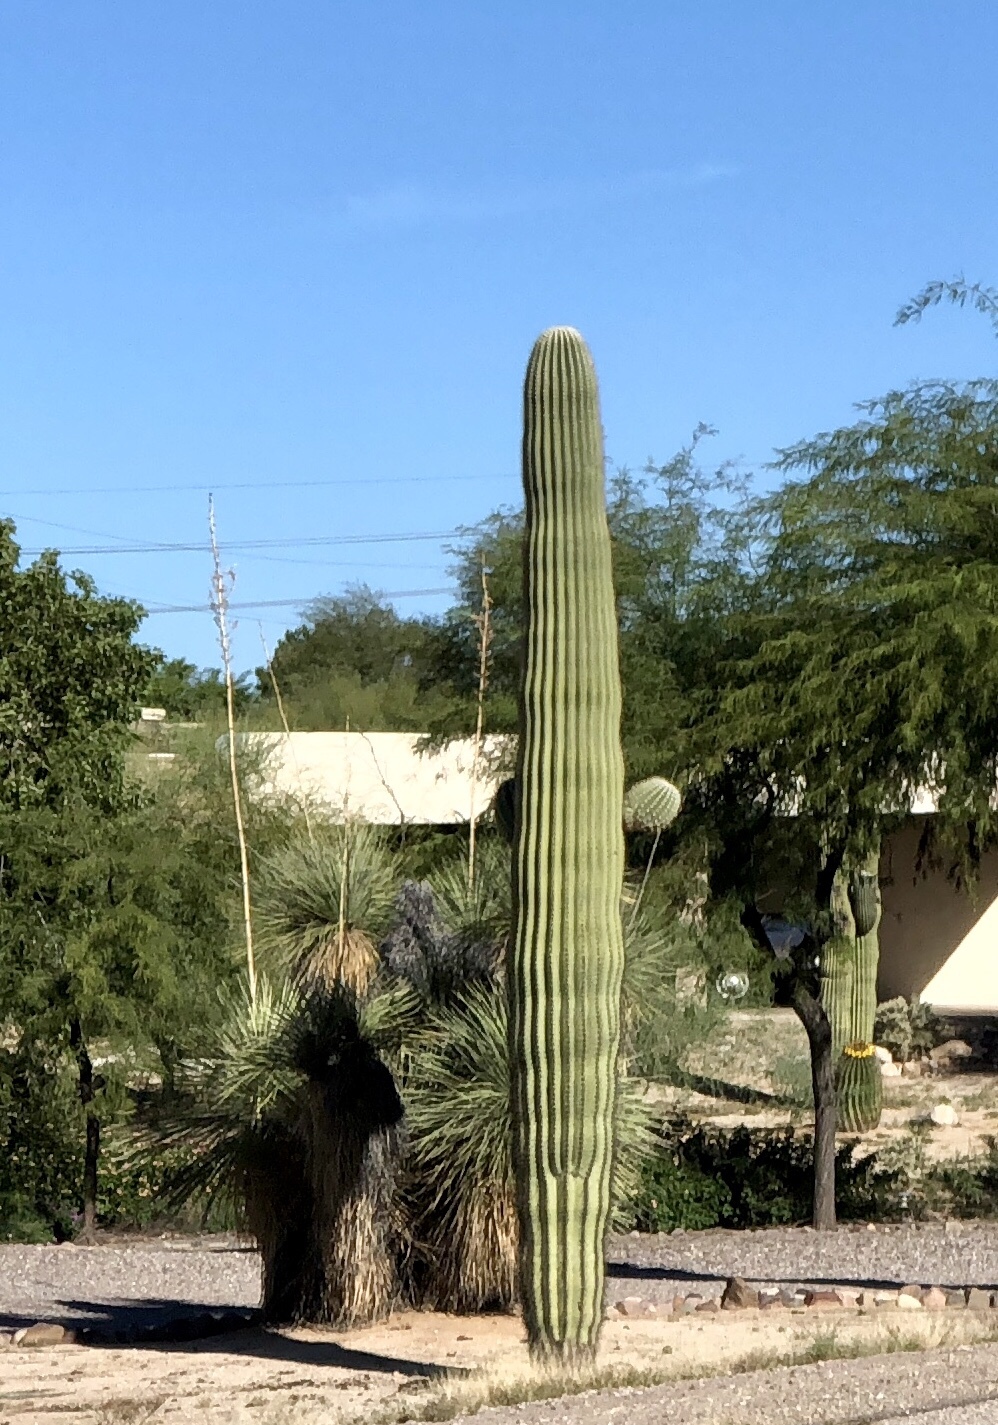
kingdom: Plantae
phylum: Tracheophyta
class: Magnoliopsida
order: Caryophyllales
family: Cactaceae
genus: Carnegiea
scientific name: Carnegiea gigantea
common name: Saguaro
